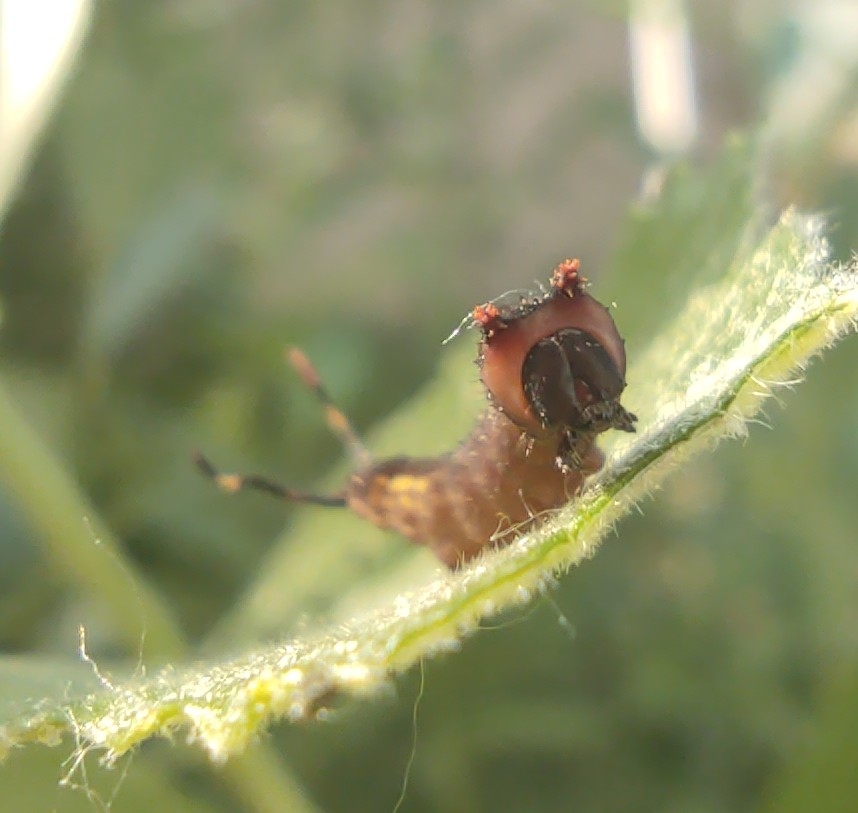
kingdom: Animalia
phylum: Arthropoda
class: Insecta
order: Lepidoptera
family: Notodontidae
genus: Cerura
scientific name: Cerura vinula
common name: Puss moth
